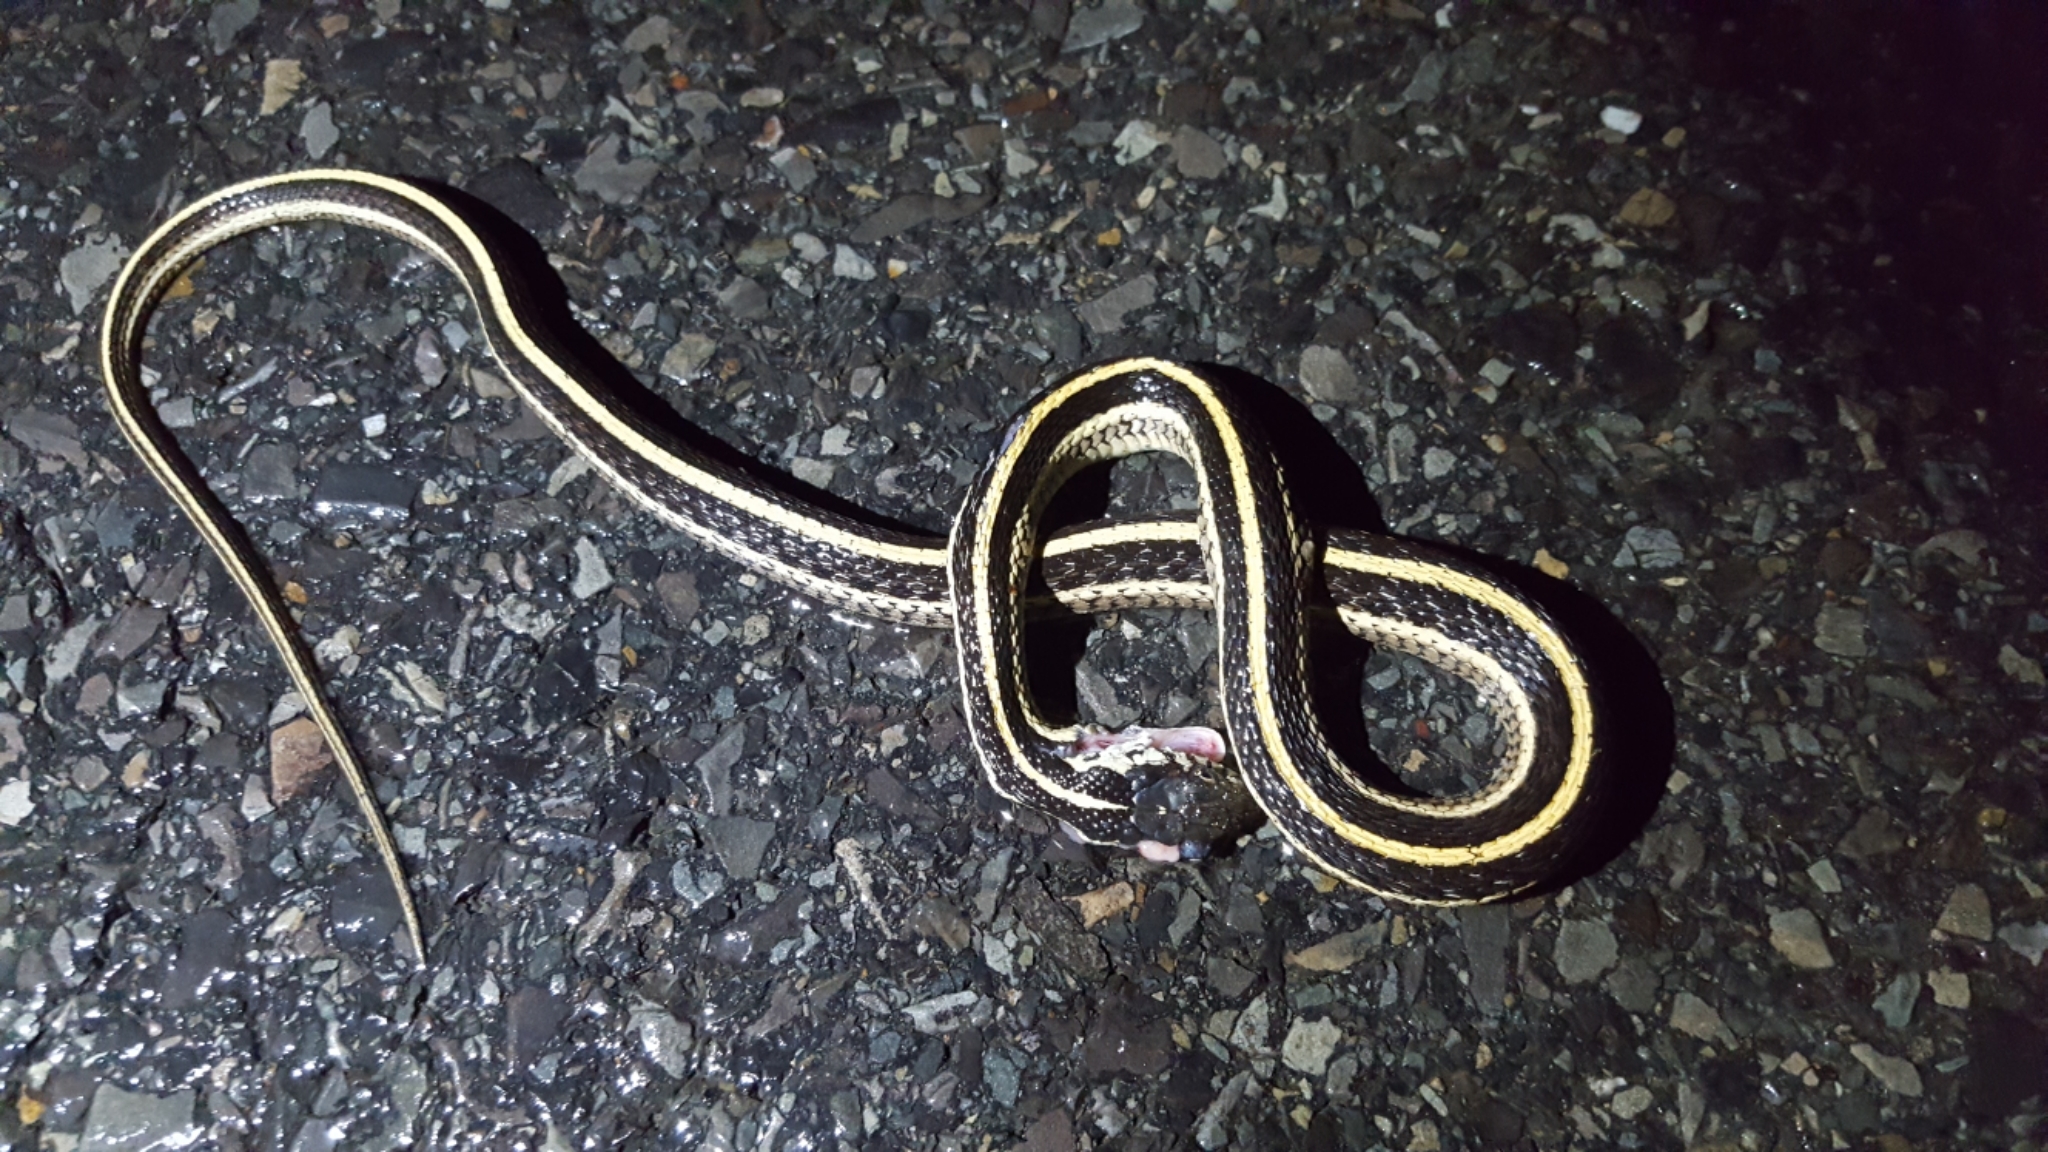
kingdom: Animalia
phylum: Chordata
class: Squamata
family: Colubridae
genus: Thamnophis
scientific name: Thamnophis sirtalis
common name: Common garter snake
